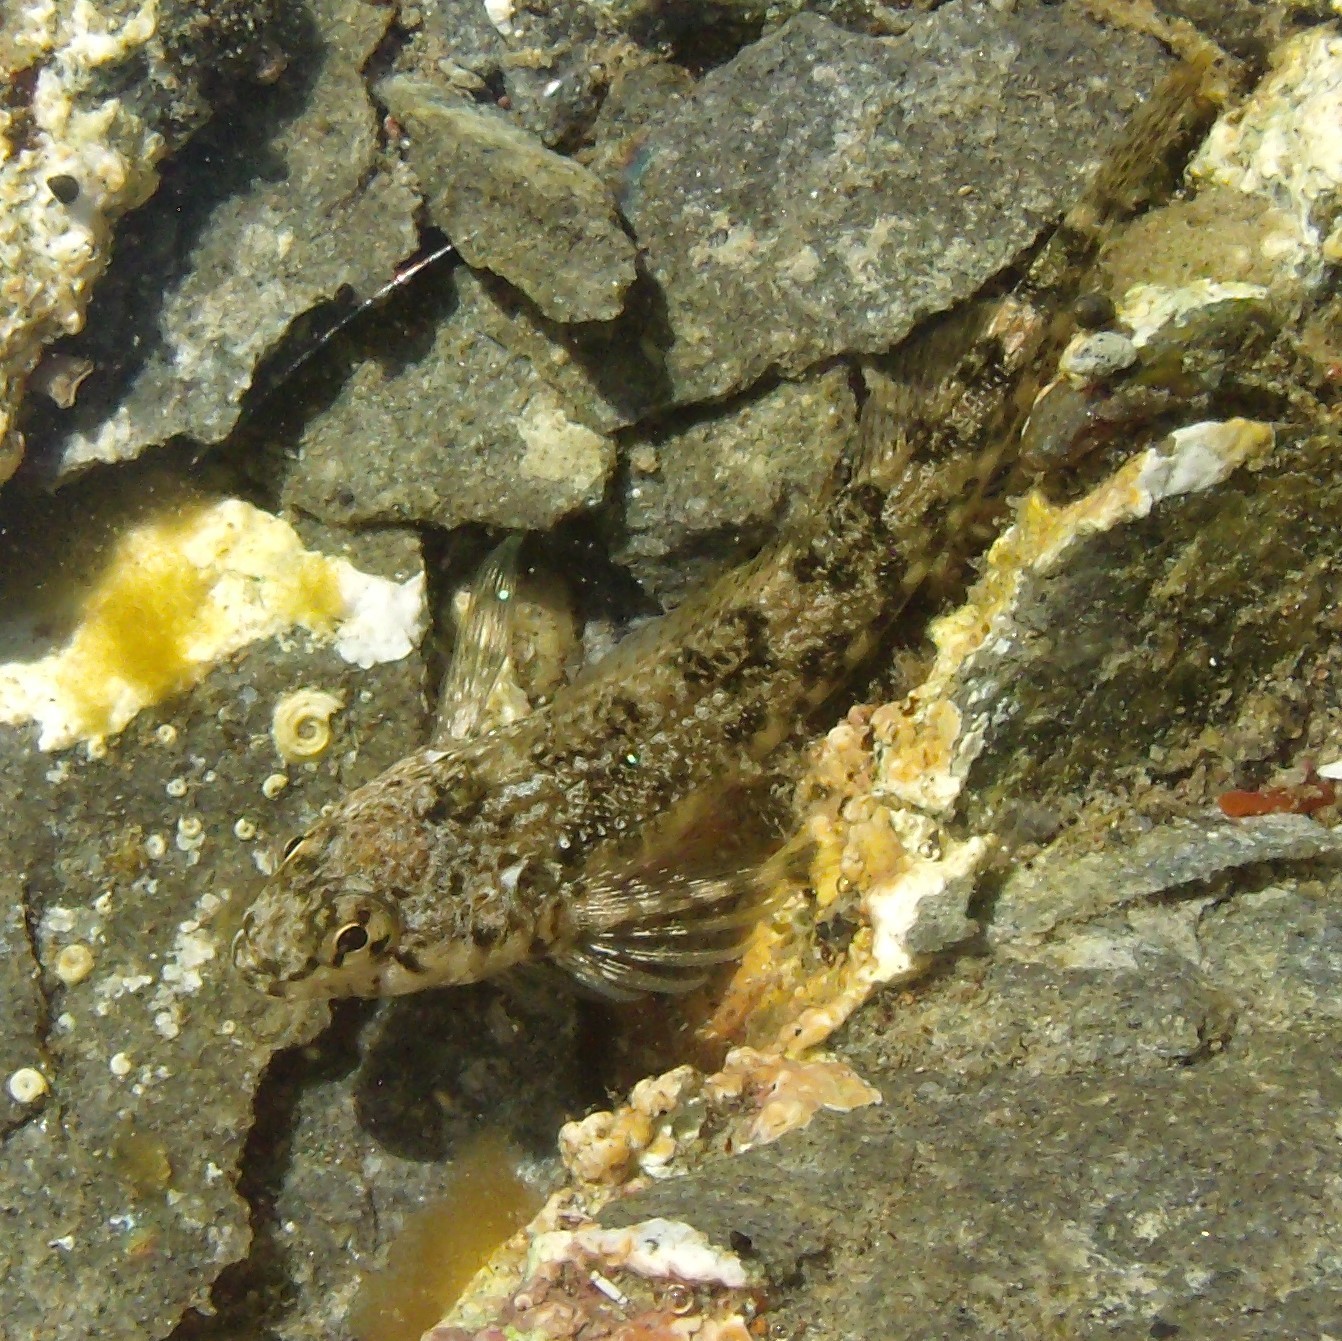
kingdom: Animalia
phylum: Chordata
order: Perciformes
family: Tripterygiidae
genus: Bellapiscis
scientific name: Bellapiscis medius
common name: Twister
